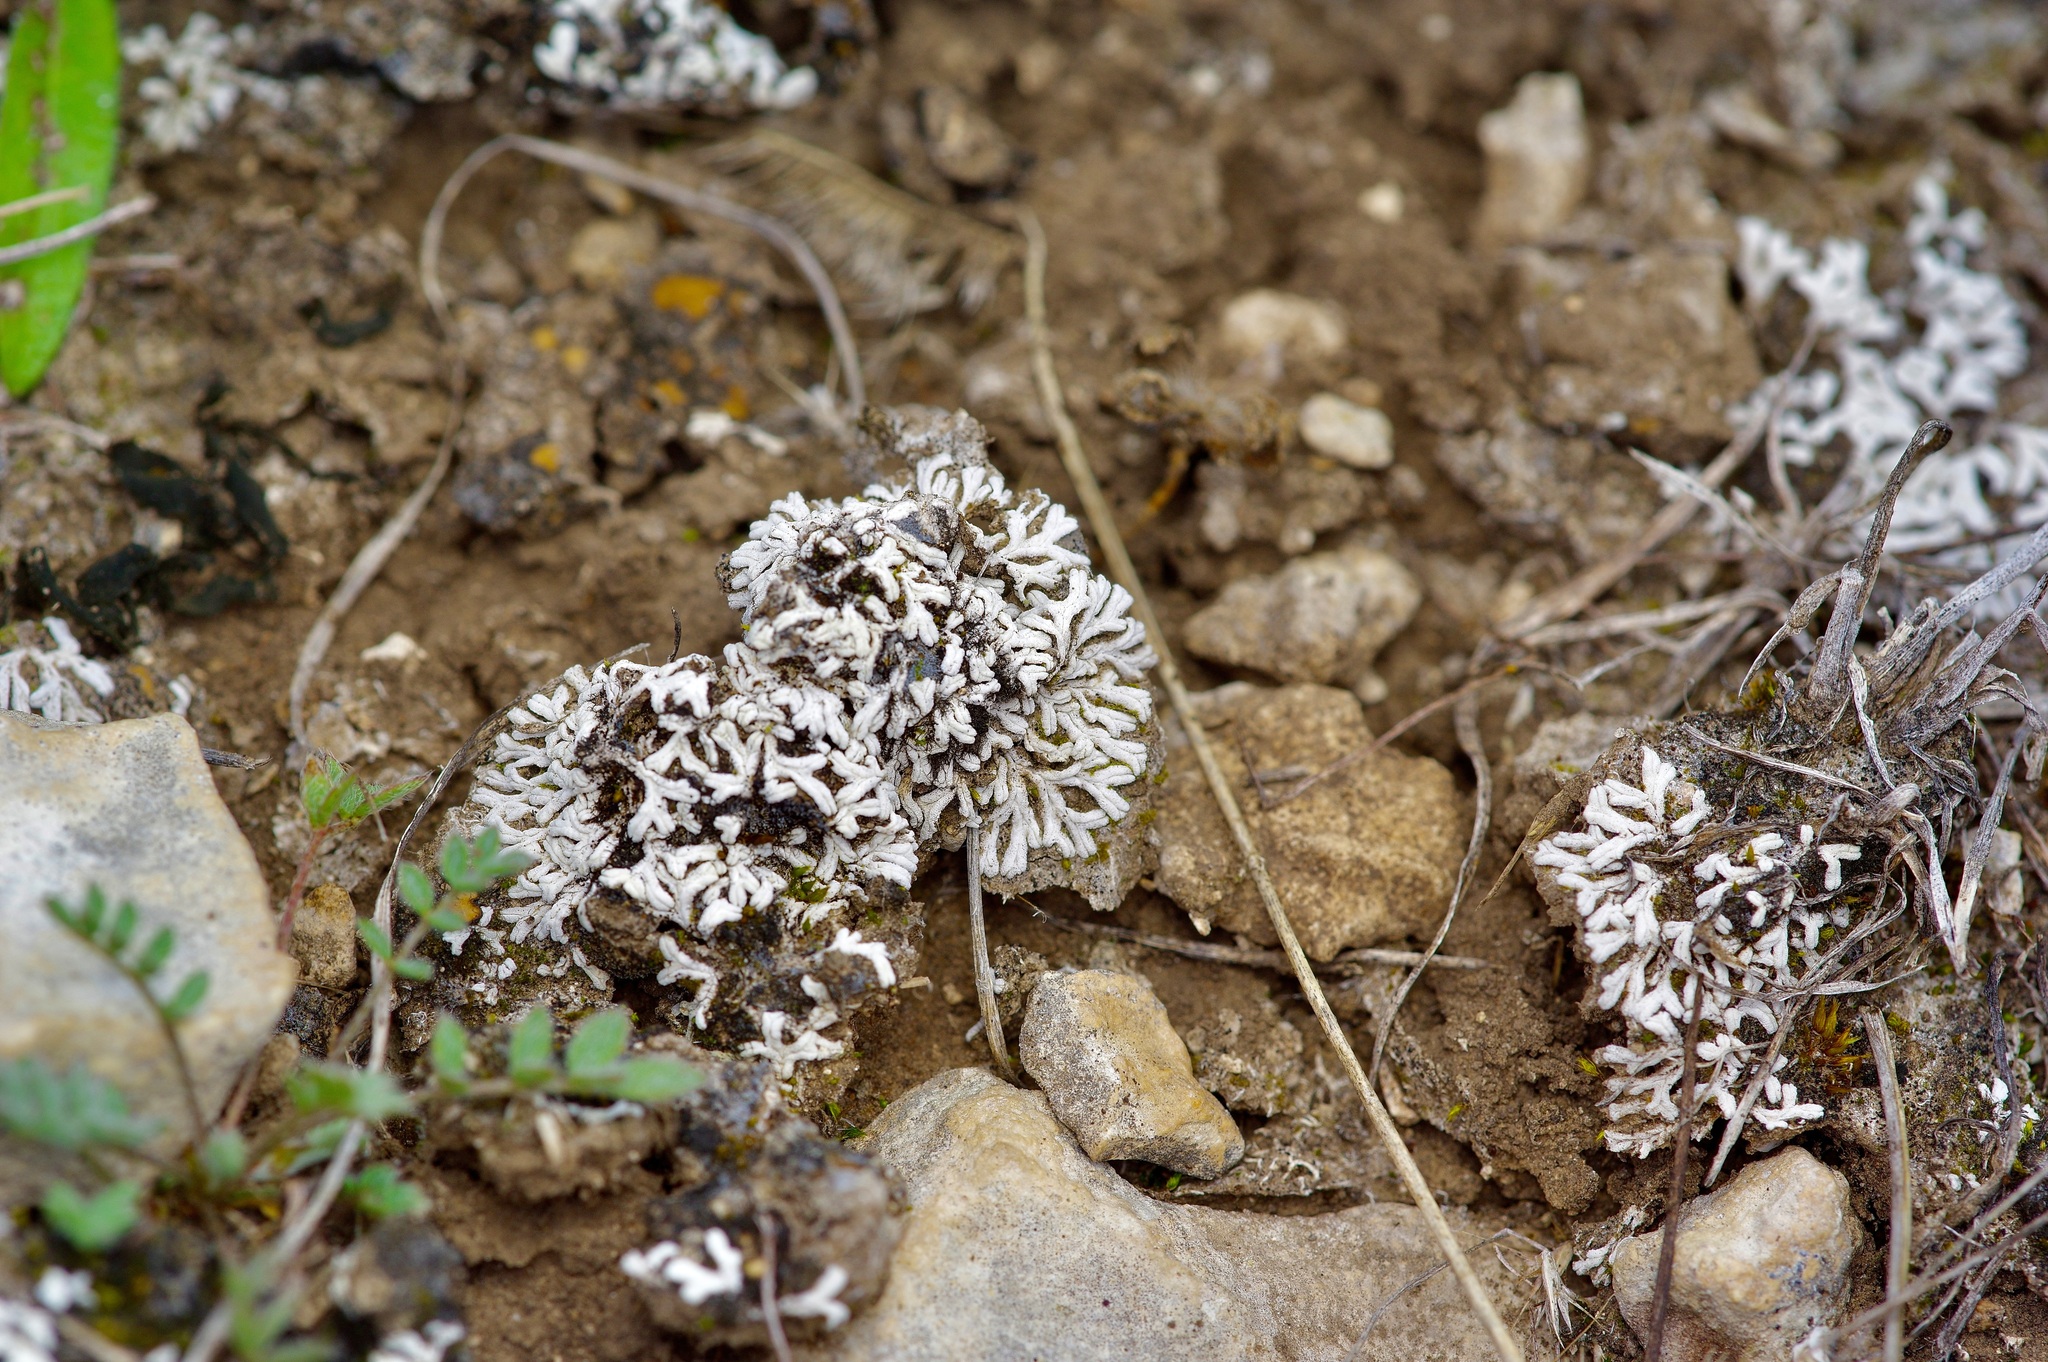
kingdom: Plantae
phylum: Marchantiophyta
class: Marchantiopsida
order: Marchantiales
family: Ricciaceae
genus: Riccia
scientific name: Riccia albida
